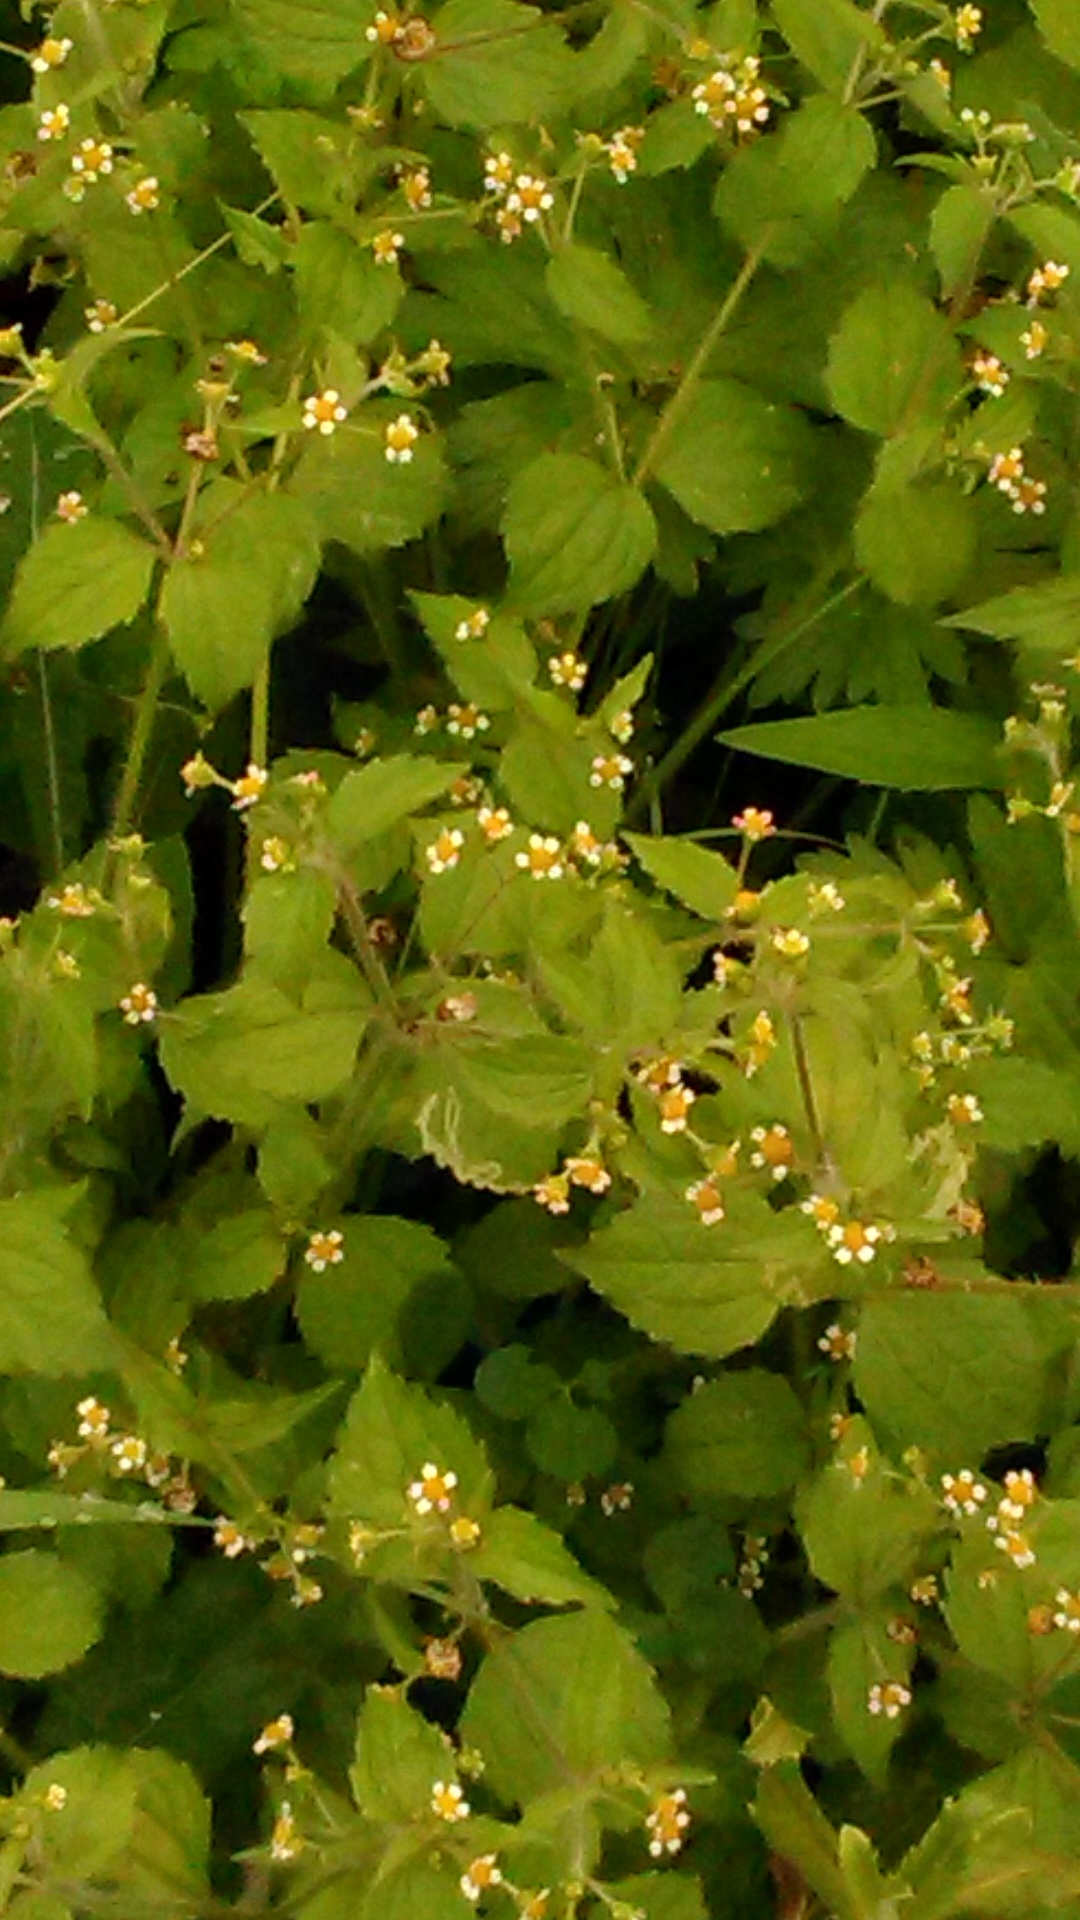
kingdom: Plantae
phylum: Tracheophyta
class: Magnoliopsida
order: Asterales
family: Asteraceae
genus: Galinsoga
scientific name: Galinsoga quadriradiata
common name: Shaggy soldier
